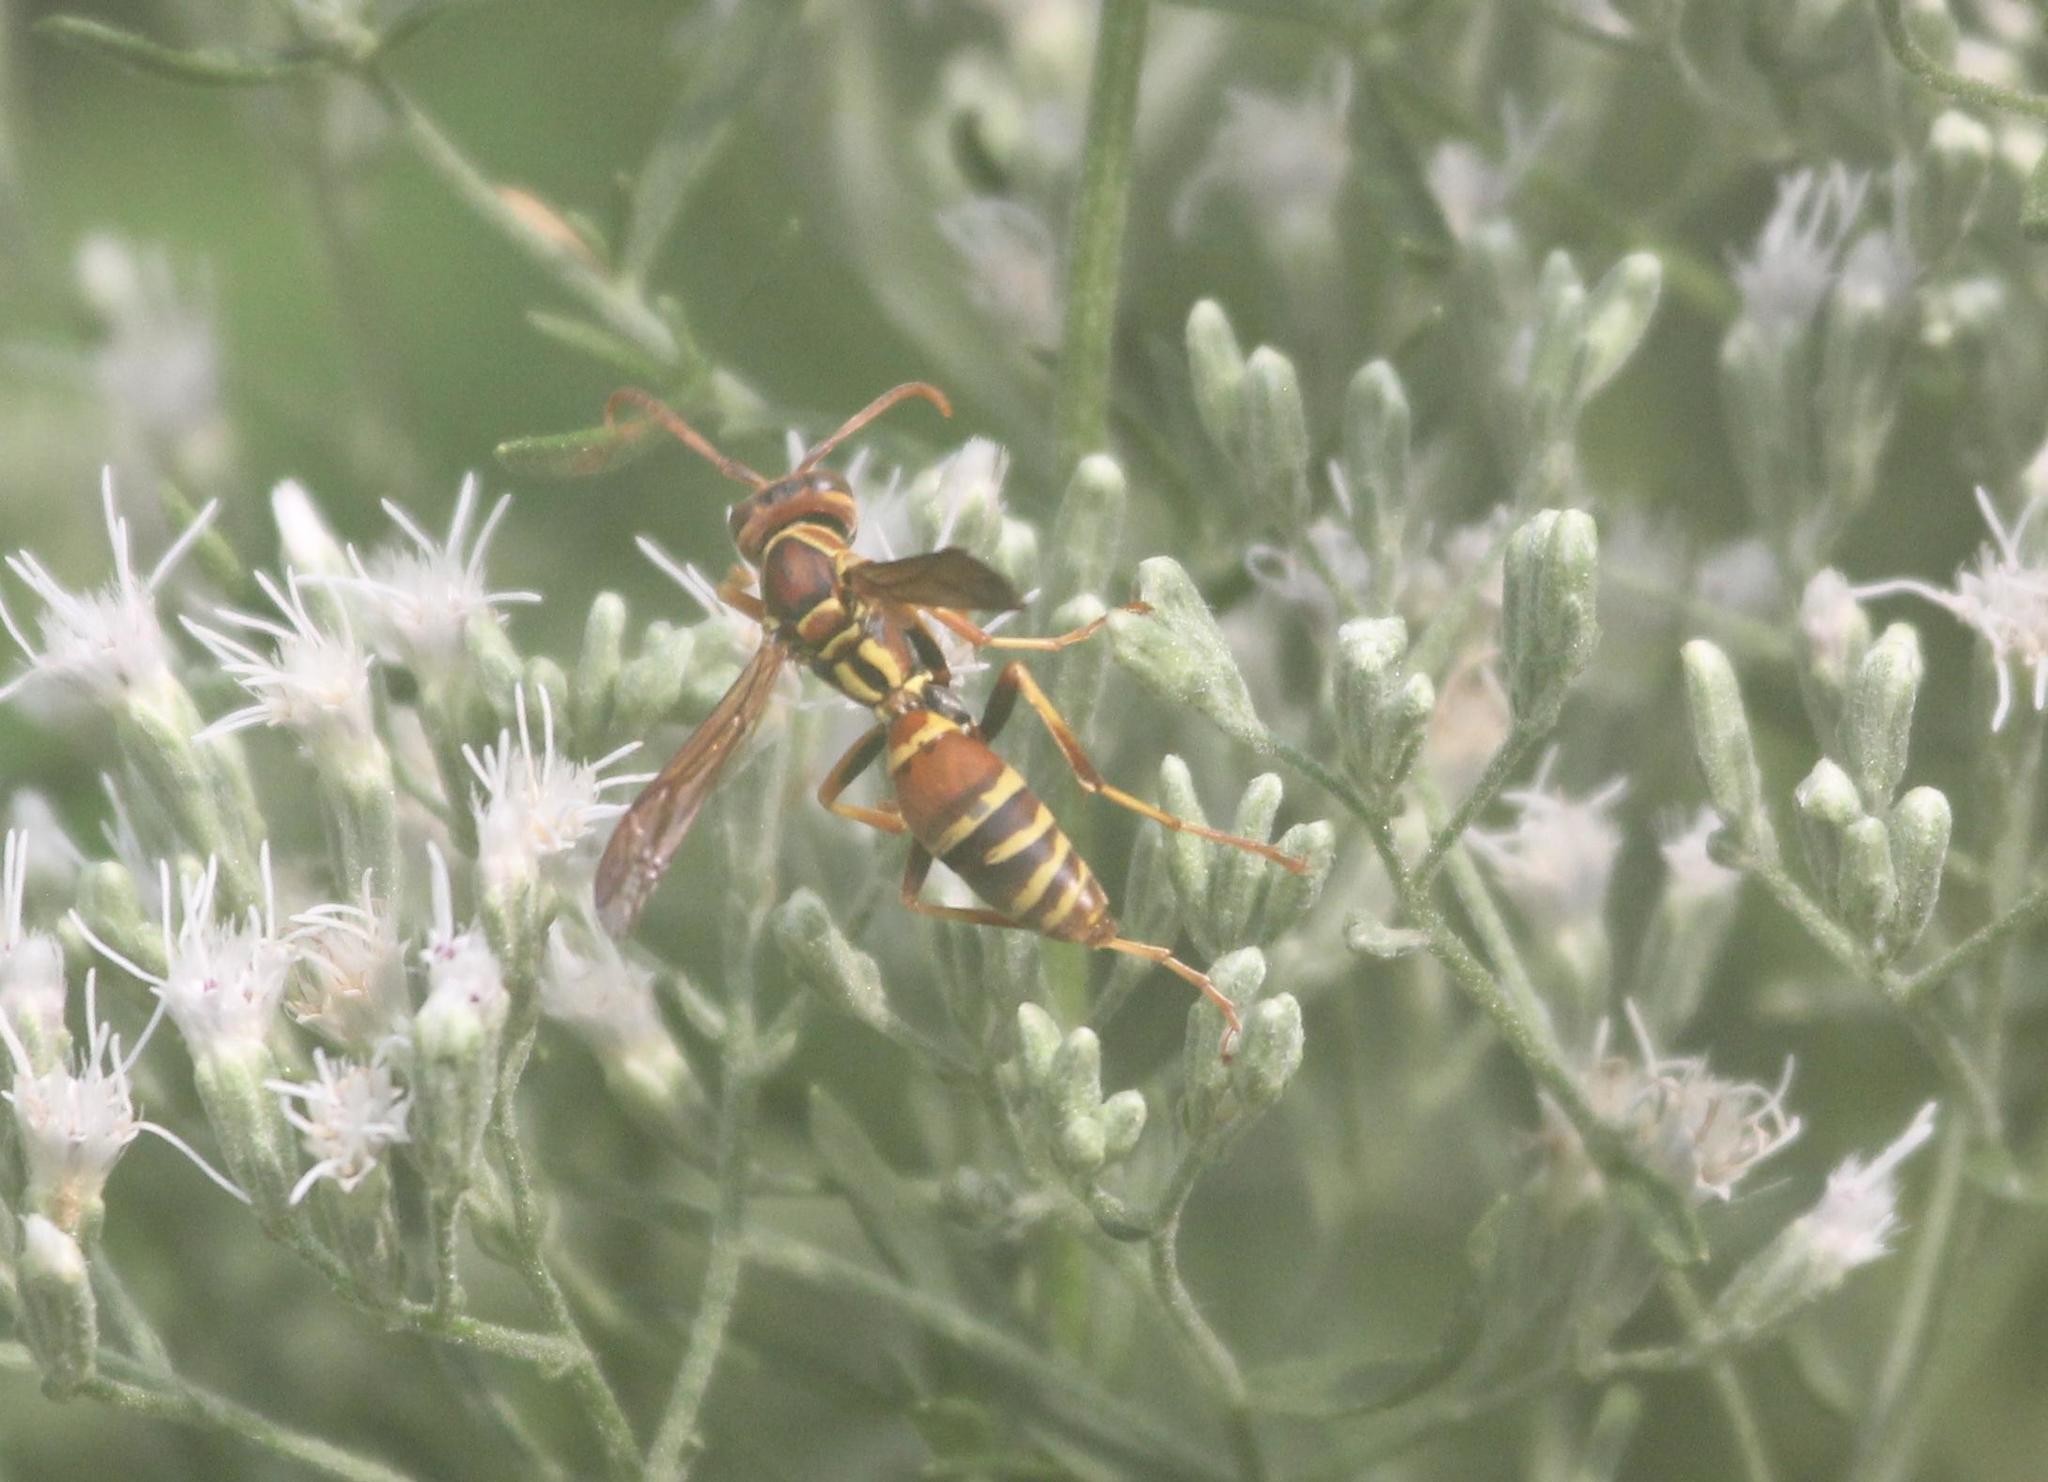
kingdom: Animalia
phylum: Arthropoda
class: Insecta
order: Hymenoptera
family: Eumenidae
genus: Polistes
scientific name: Polistes dorsalis
